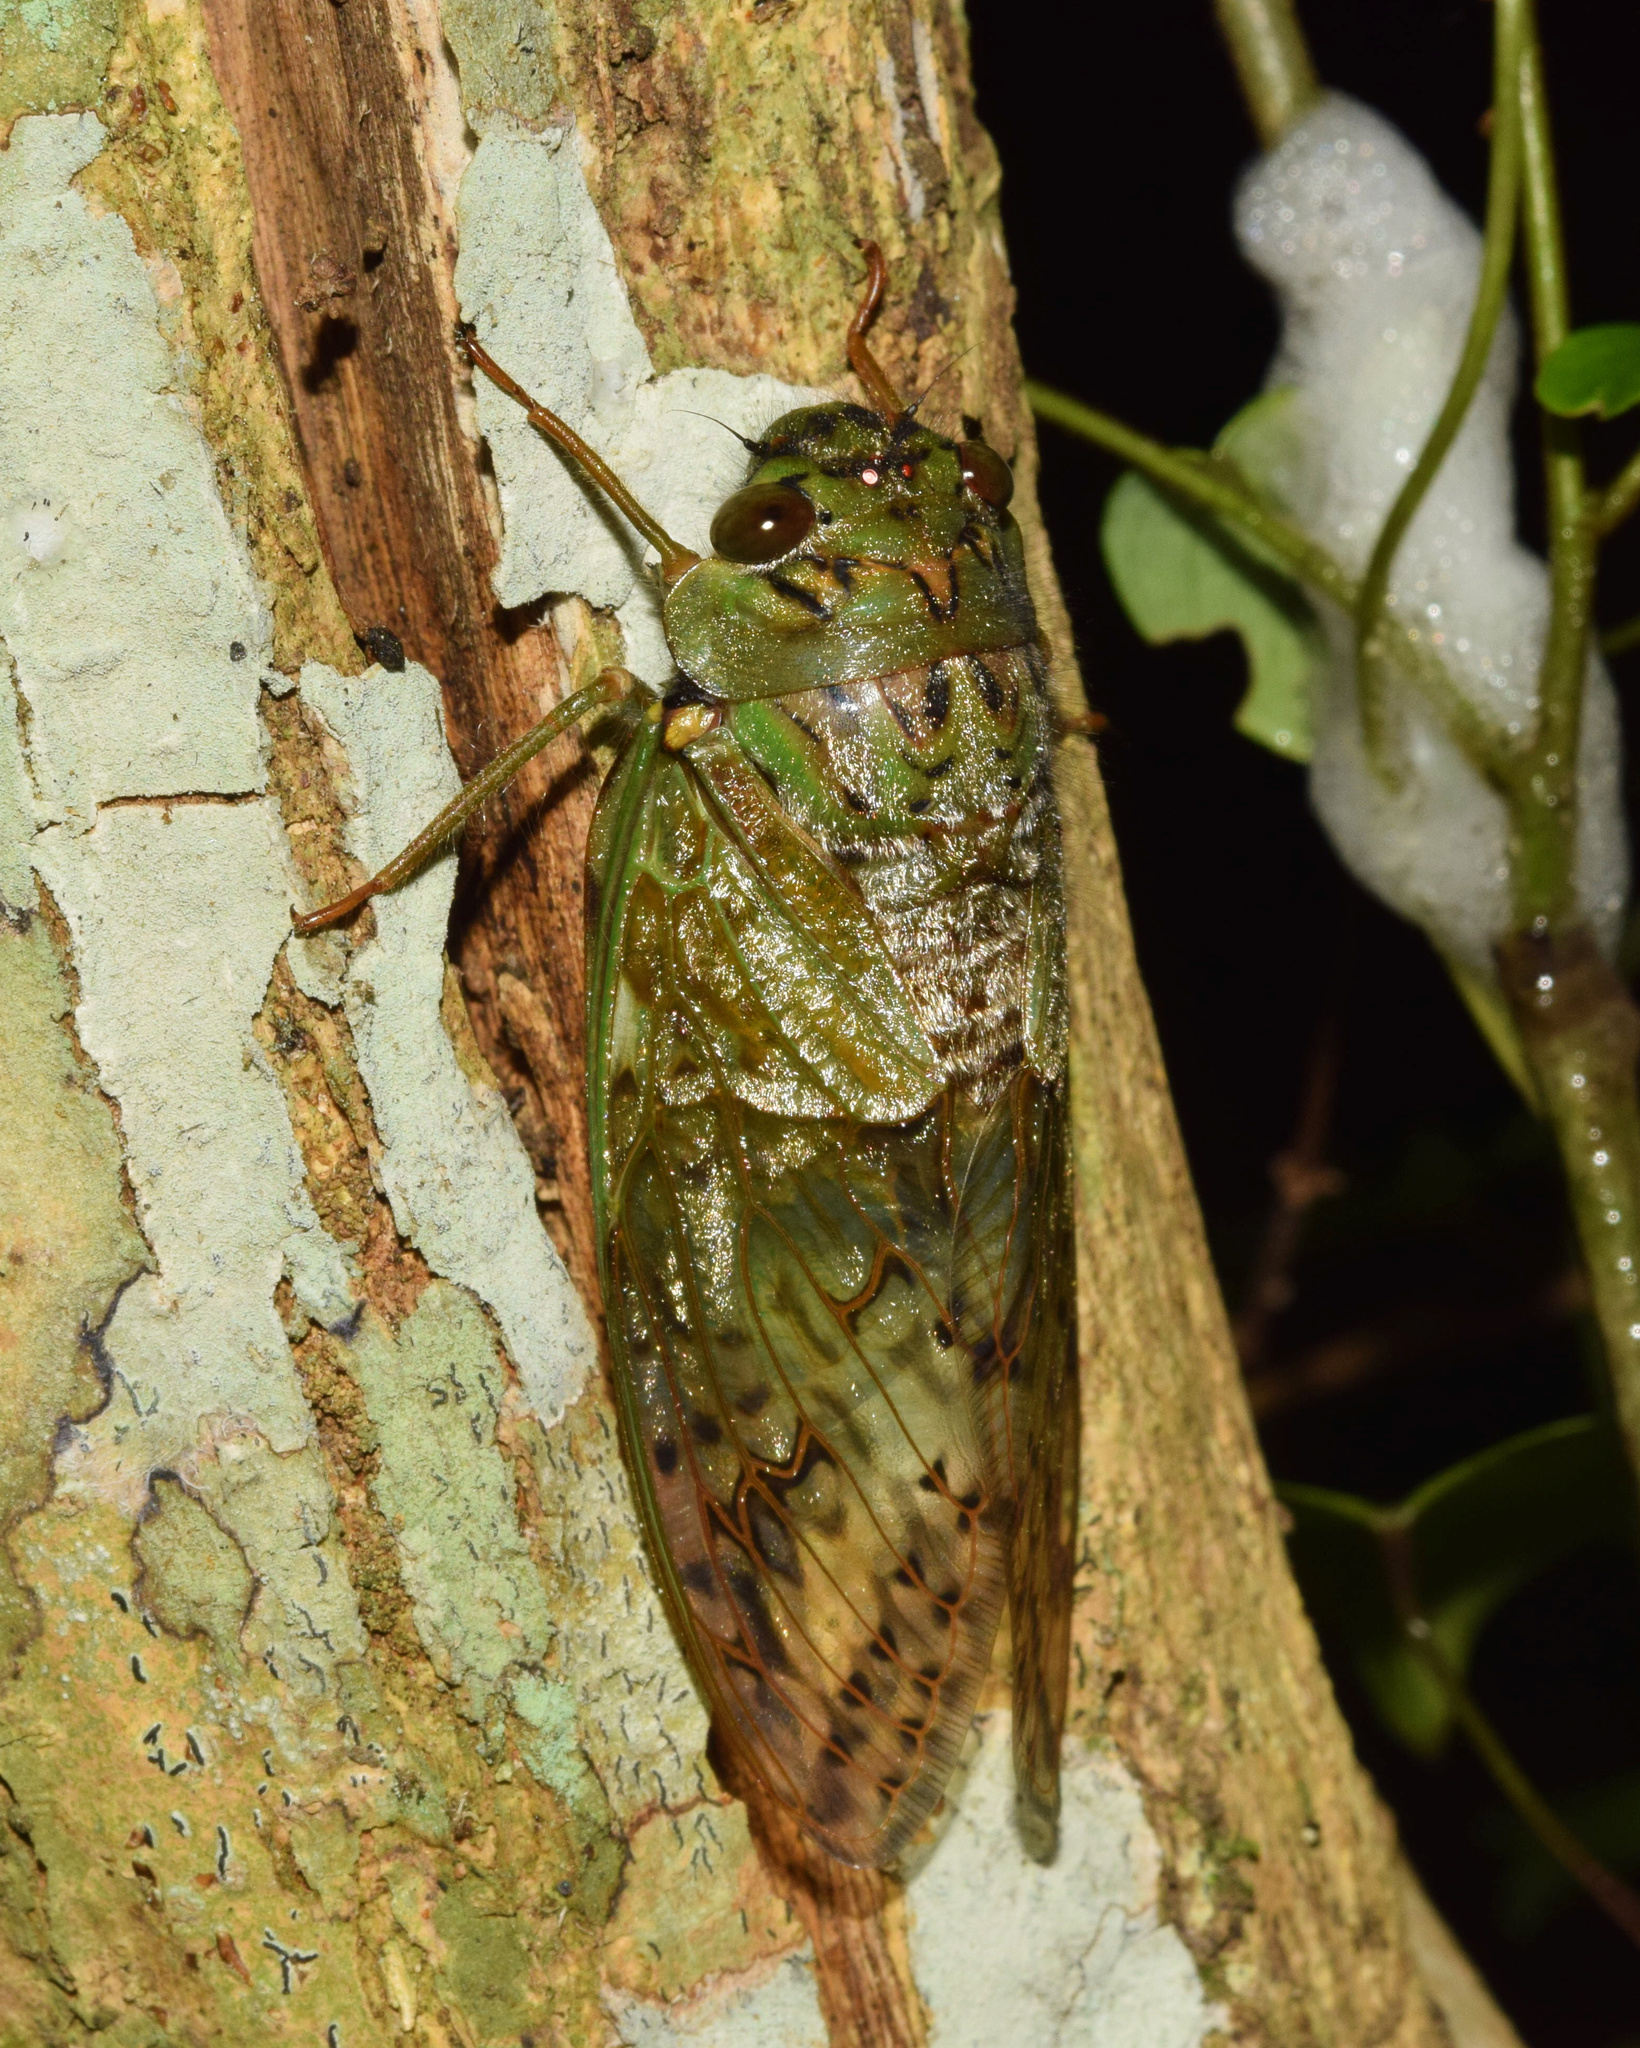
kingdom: Animalia
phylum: Arthropoda
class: Insecta
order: Hemiptera
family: Cicadidae
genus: Dyticopycna
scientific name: Dyticopycna semiclara
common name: Whining forest cicada
